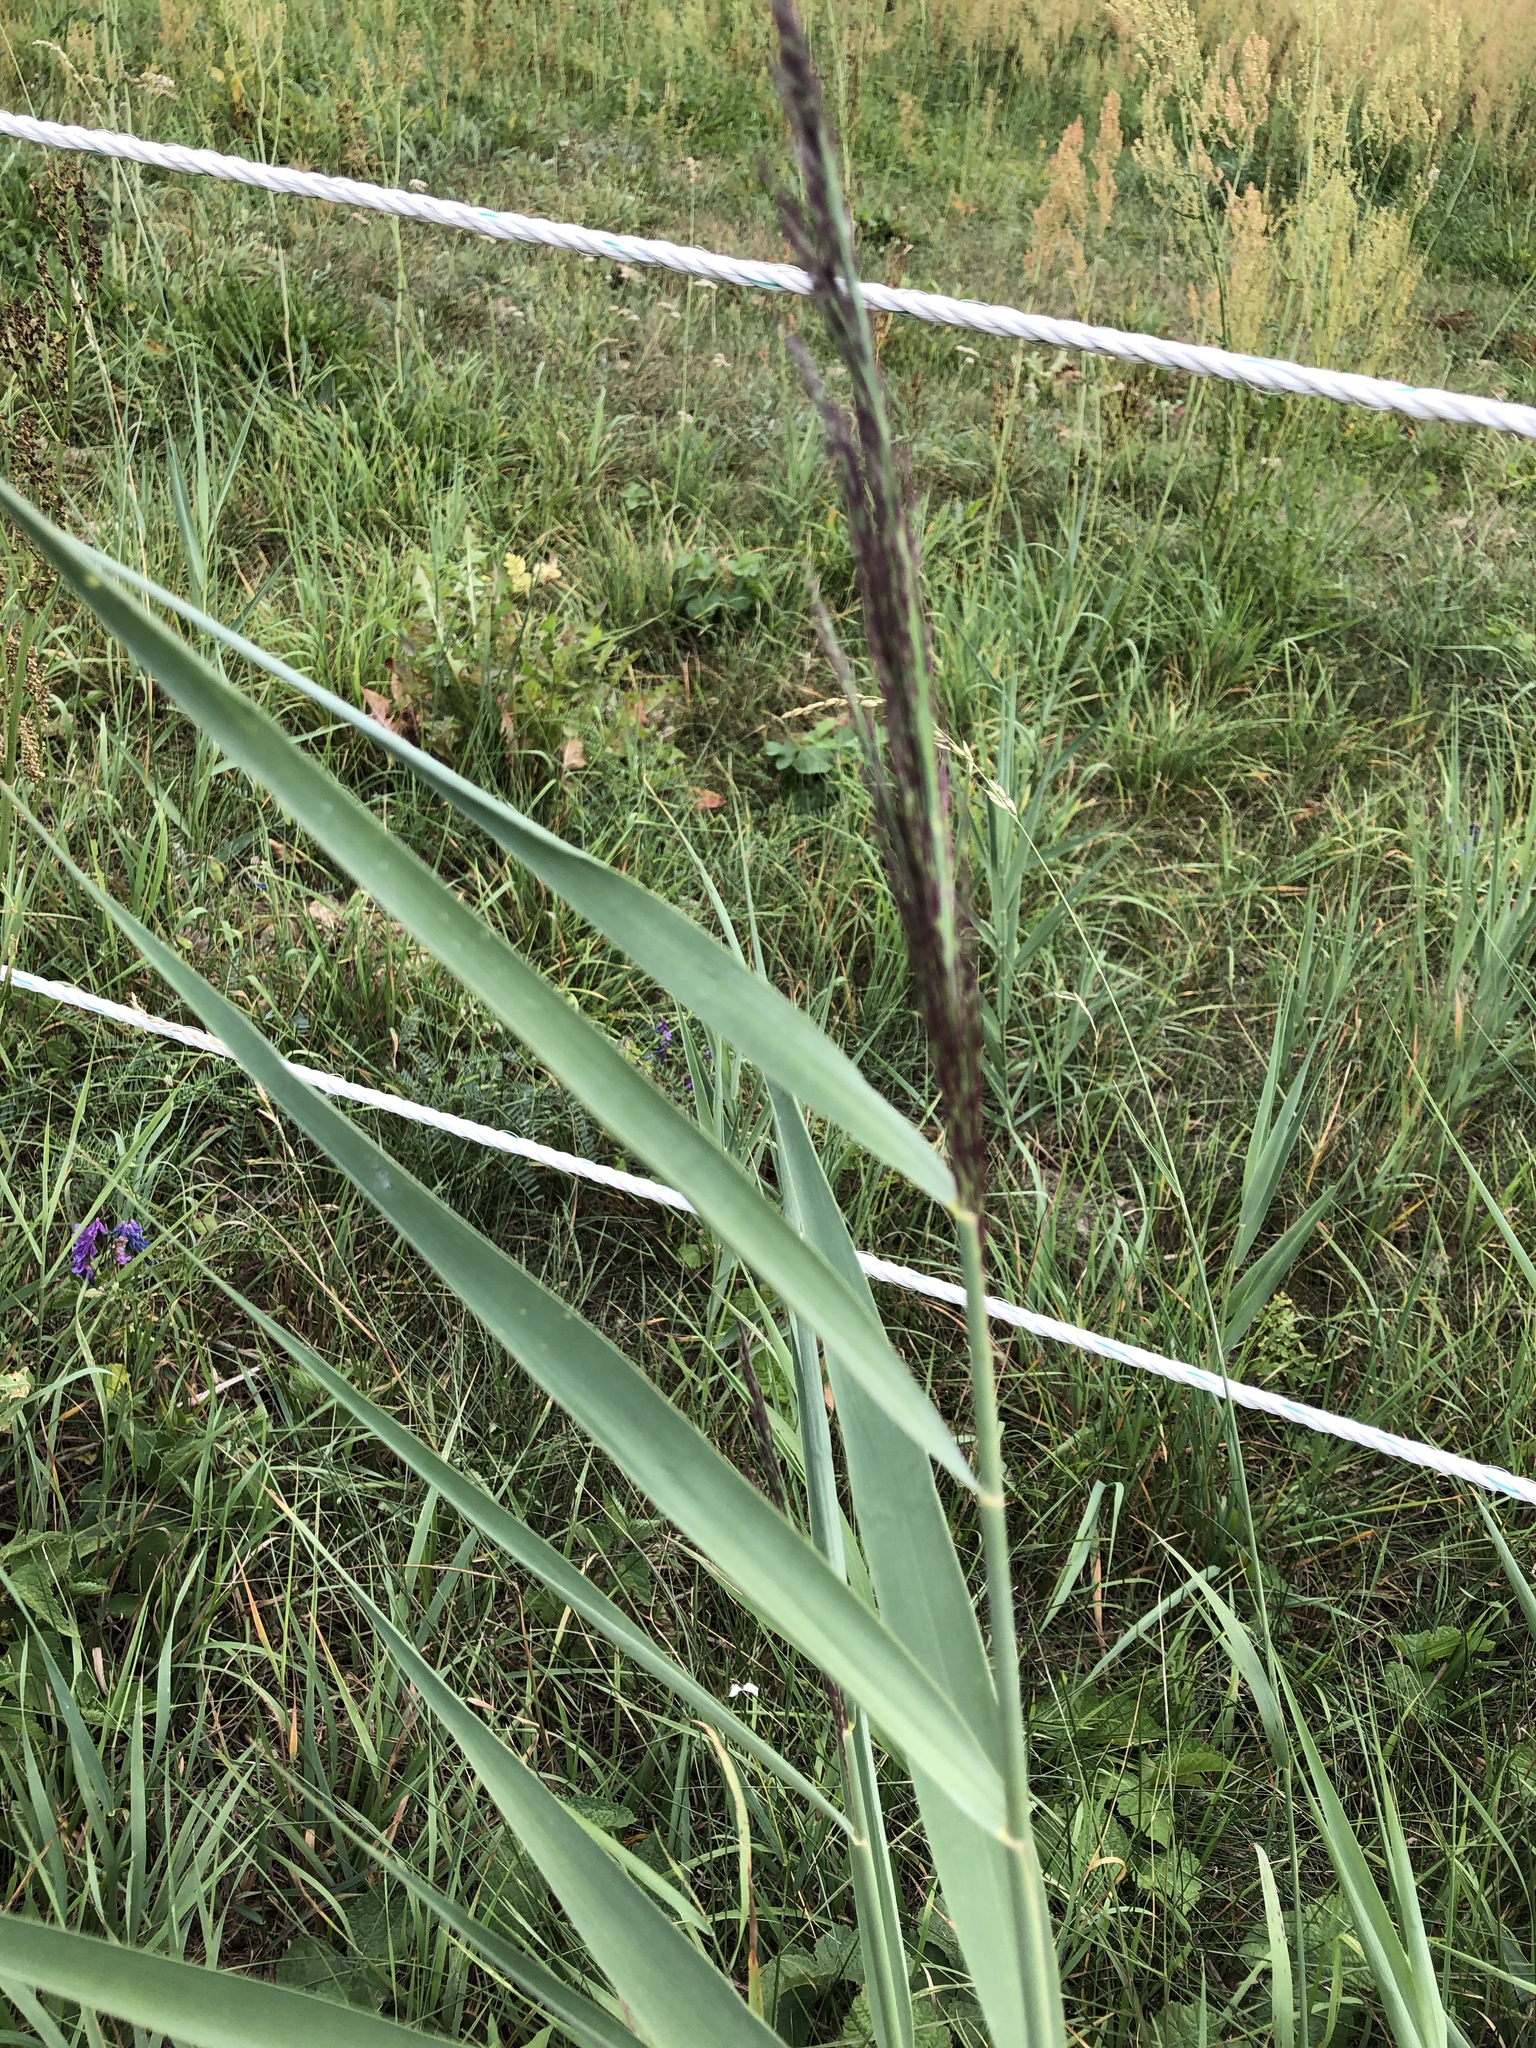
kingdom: Plantae
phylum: Tracheophyta
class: Liliopsida
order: Poales
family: Poaceae
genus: Phragmites
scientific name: Phragmites australis
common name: Common reed
